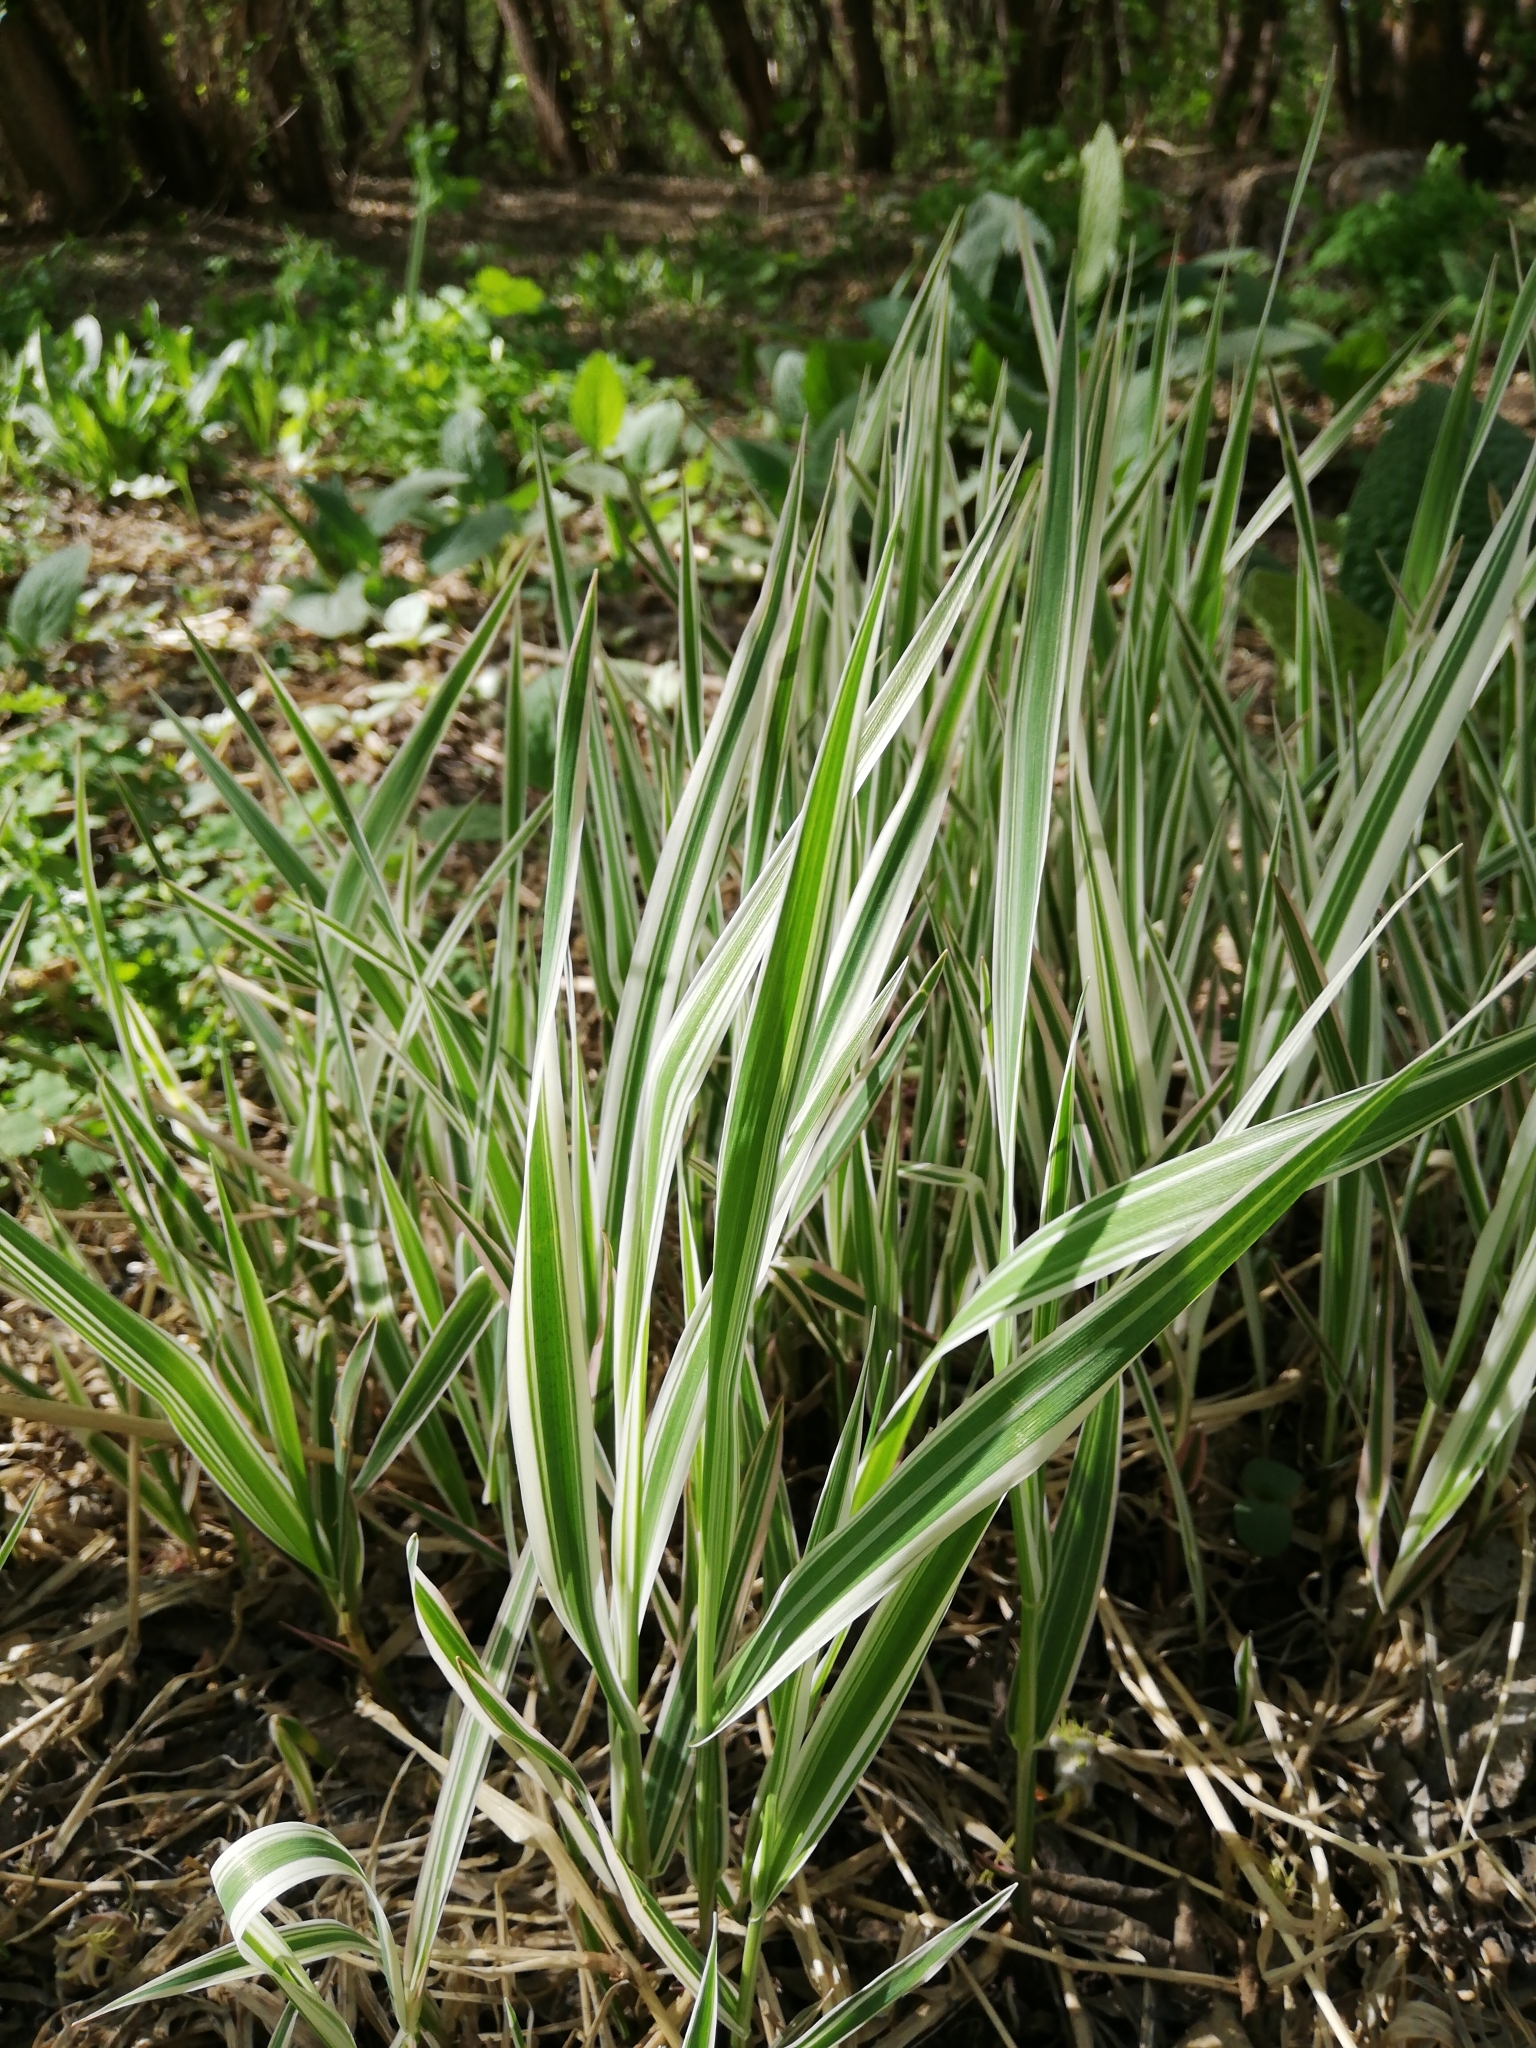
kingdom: Plantae
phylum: Tracheophyta
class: Liliopsida
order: Poales
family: Poaceae
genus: Phalaris
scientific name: Phalaris arundinacea
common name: Reed canary-grass
